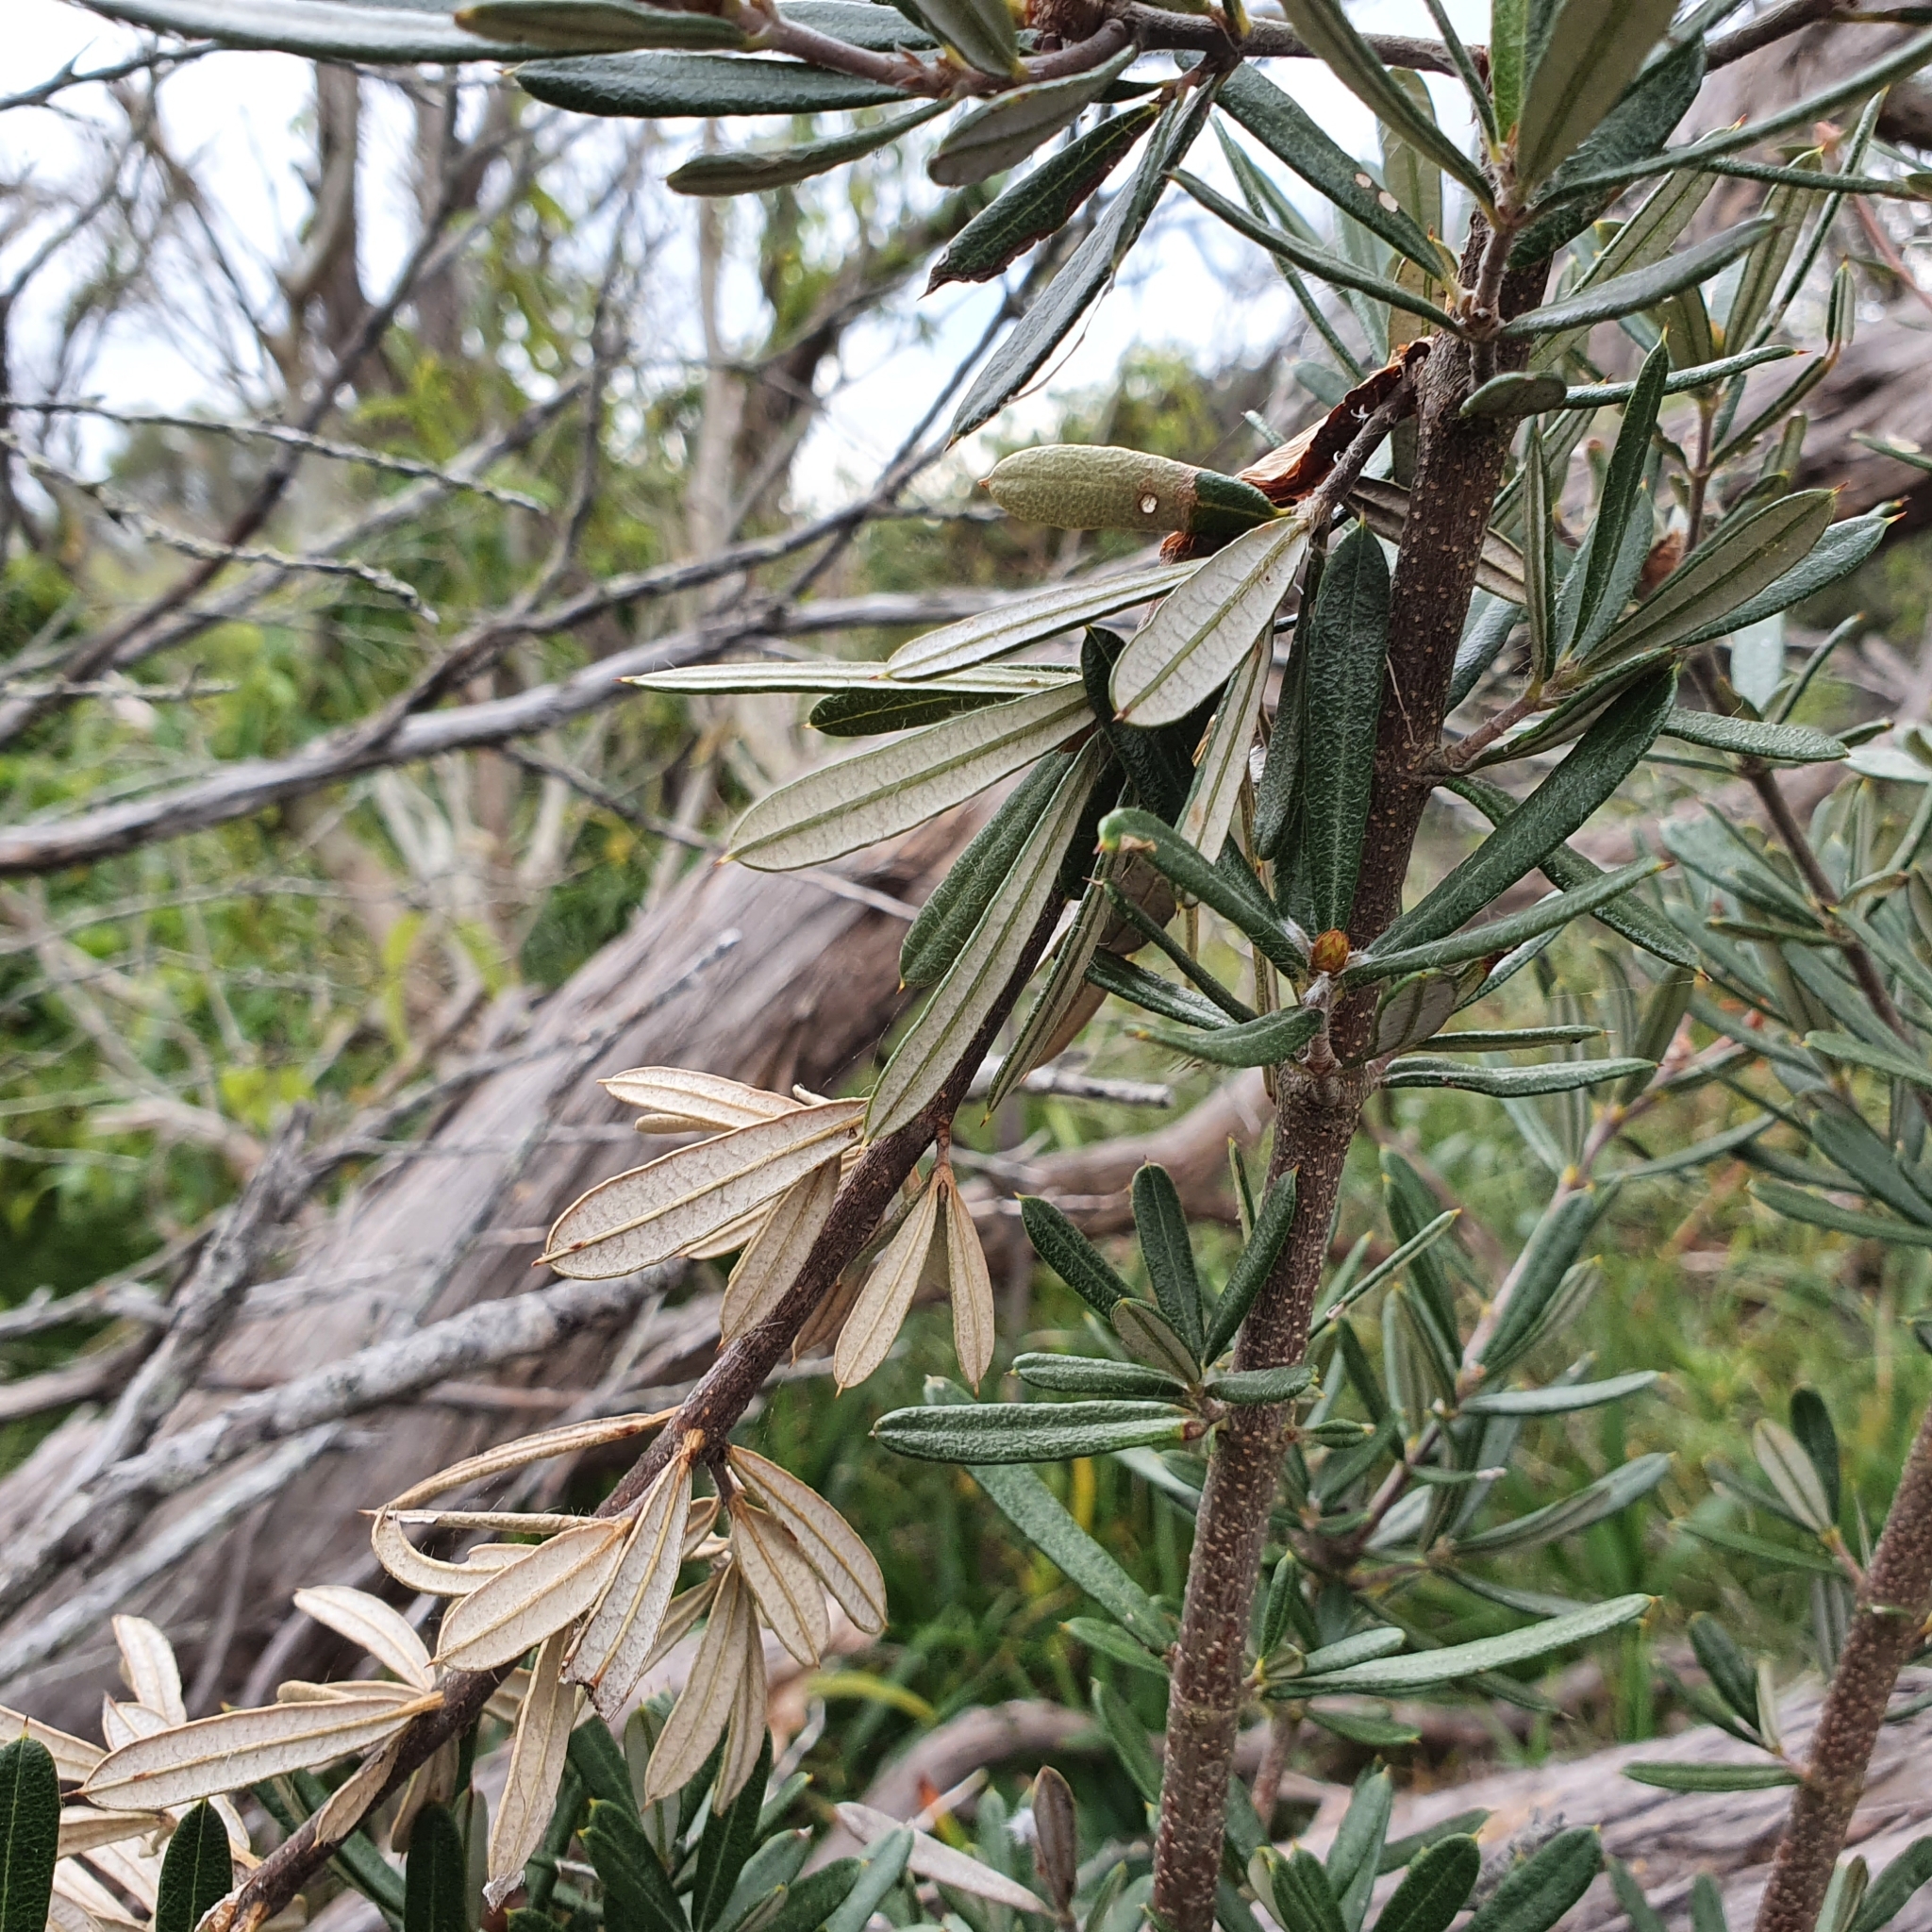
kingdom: Plantae
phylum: Tracheophyta
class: Magnoliopsida
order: Proteales
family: Proteaceae
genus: Lambertia
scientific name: Lambertia formosa
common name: Mountain-devil
